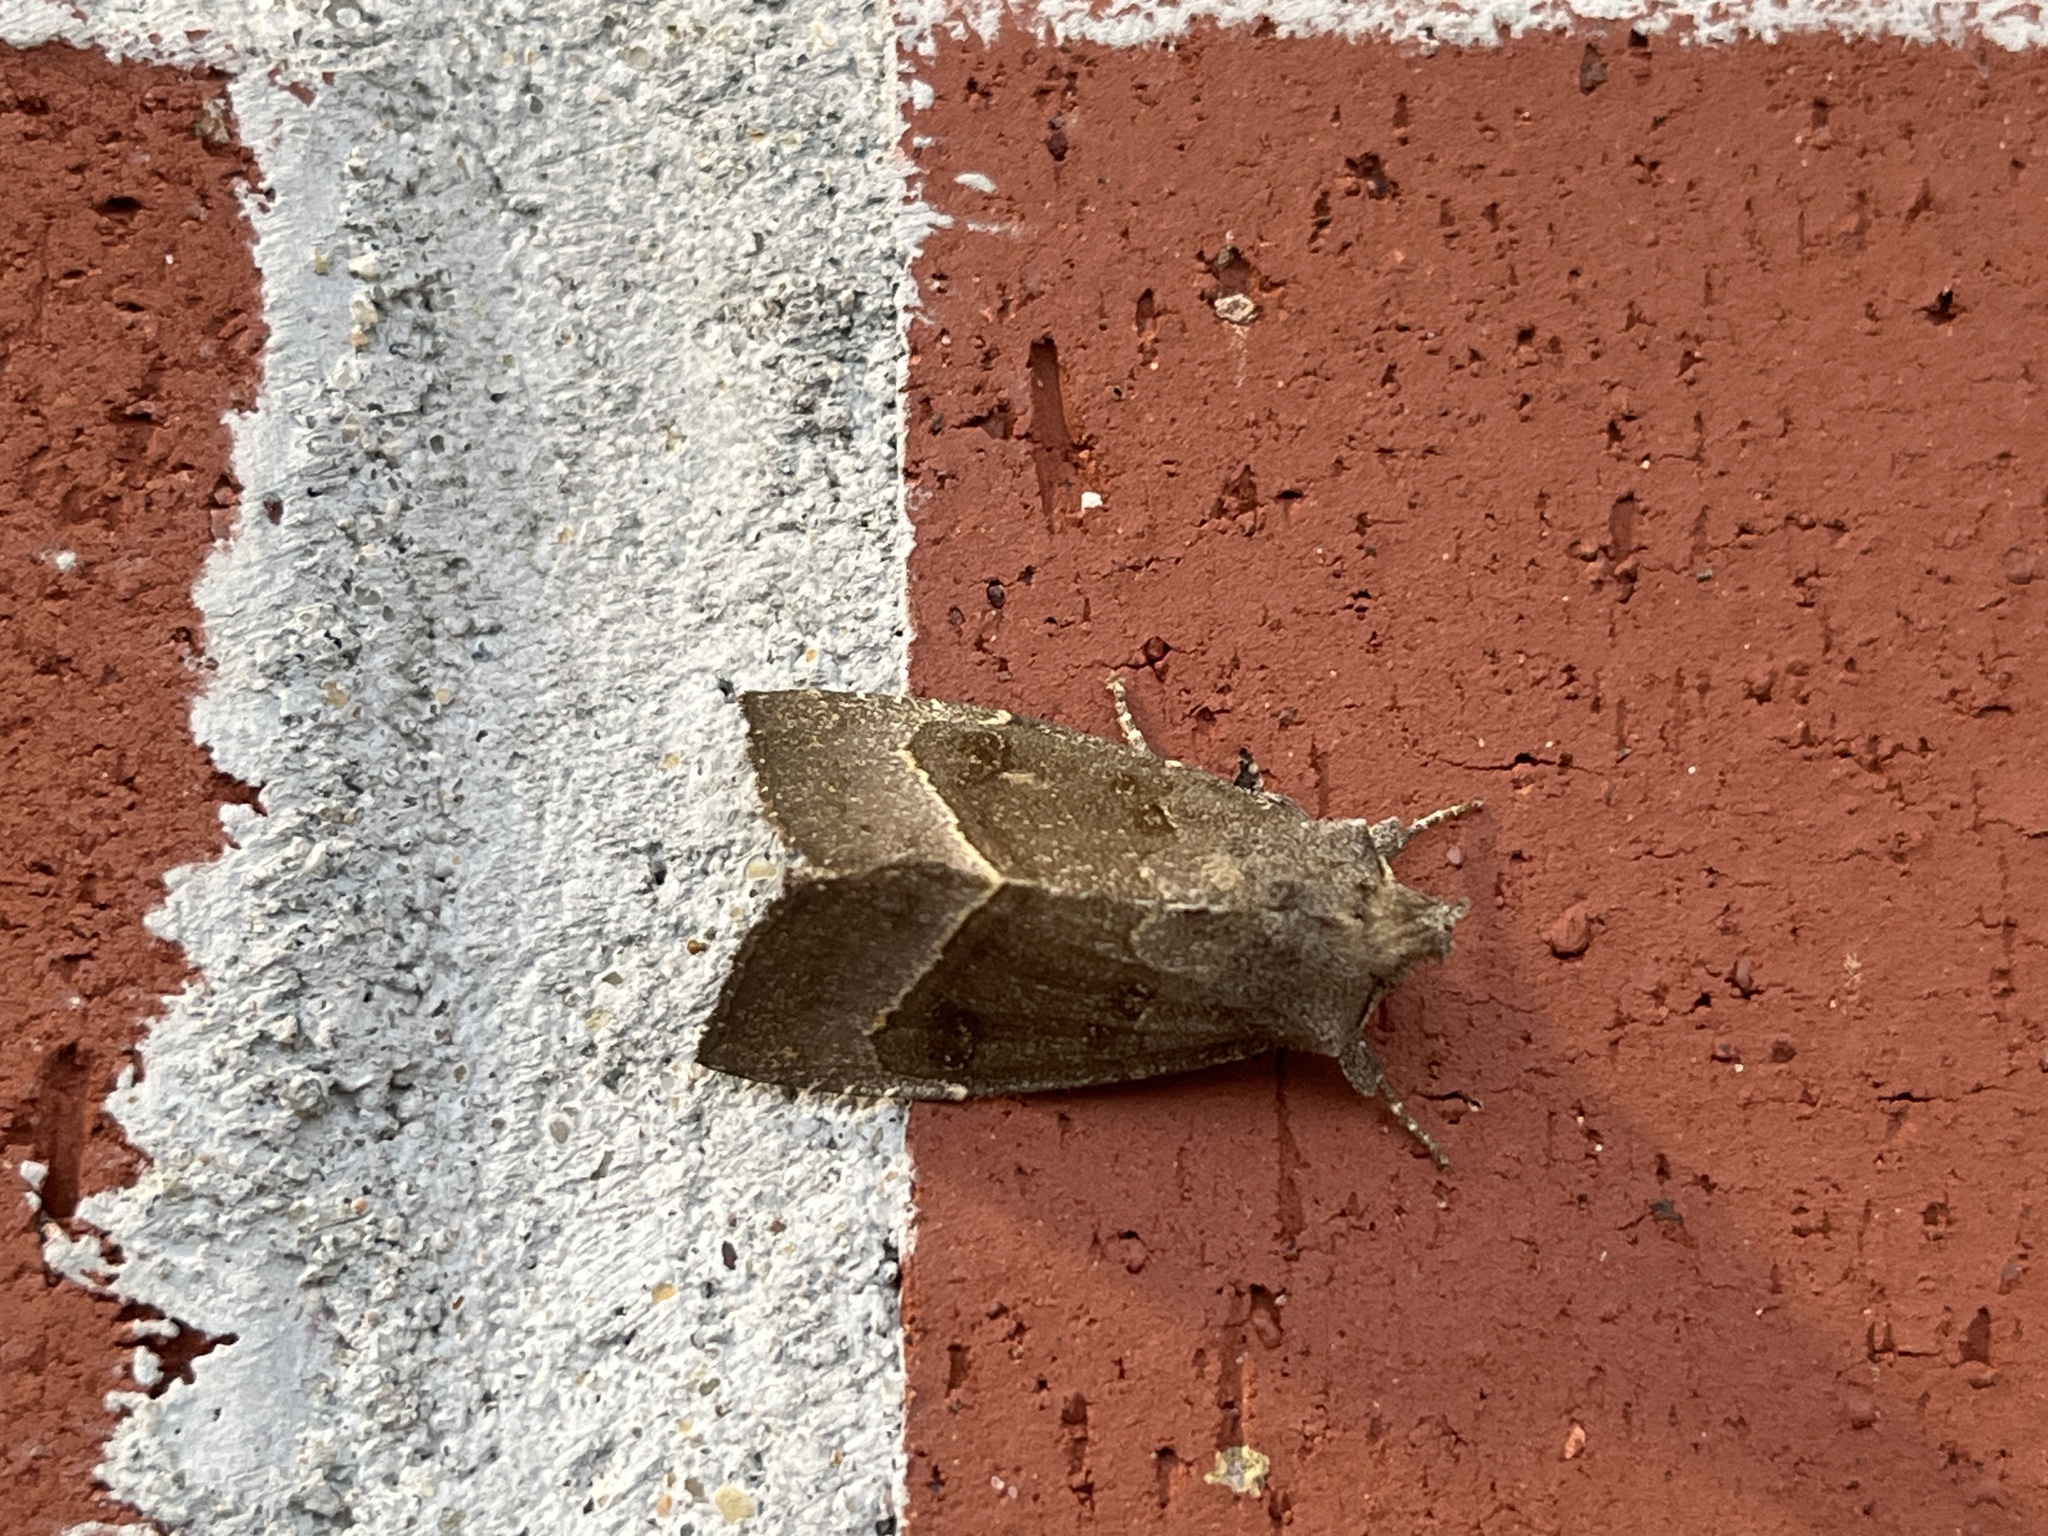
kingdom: Animalia
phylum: Arthropoda
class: Insecta
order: Lepidoptera
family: Noctuidae
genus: Papaipema
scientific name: Papaipema nebris
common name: Stalk borer
